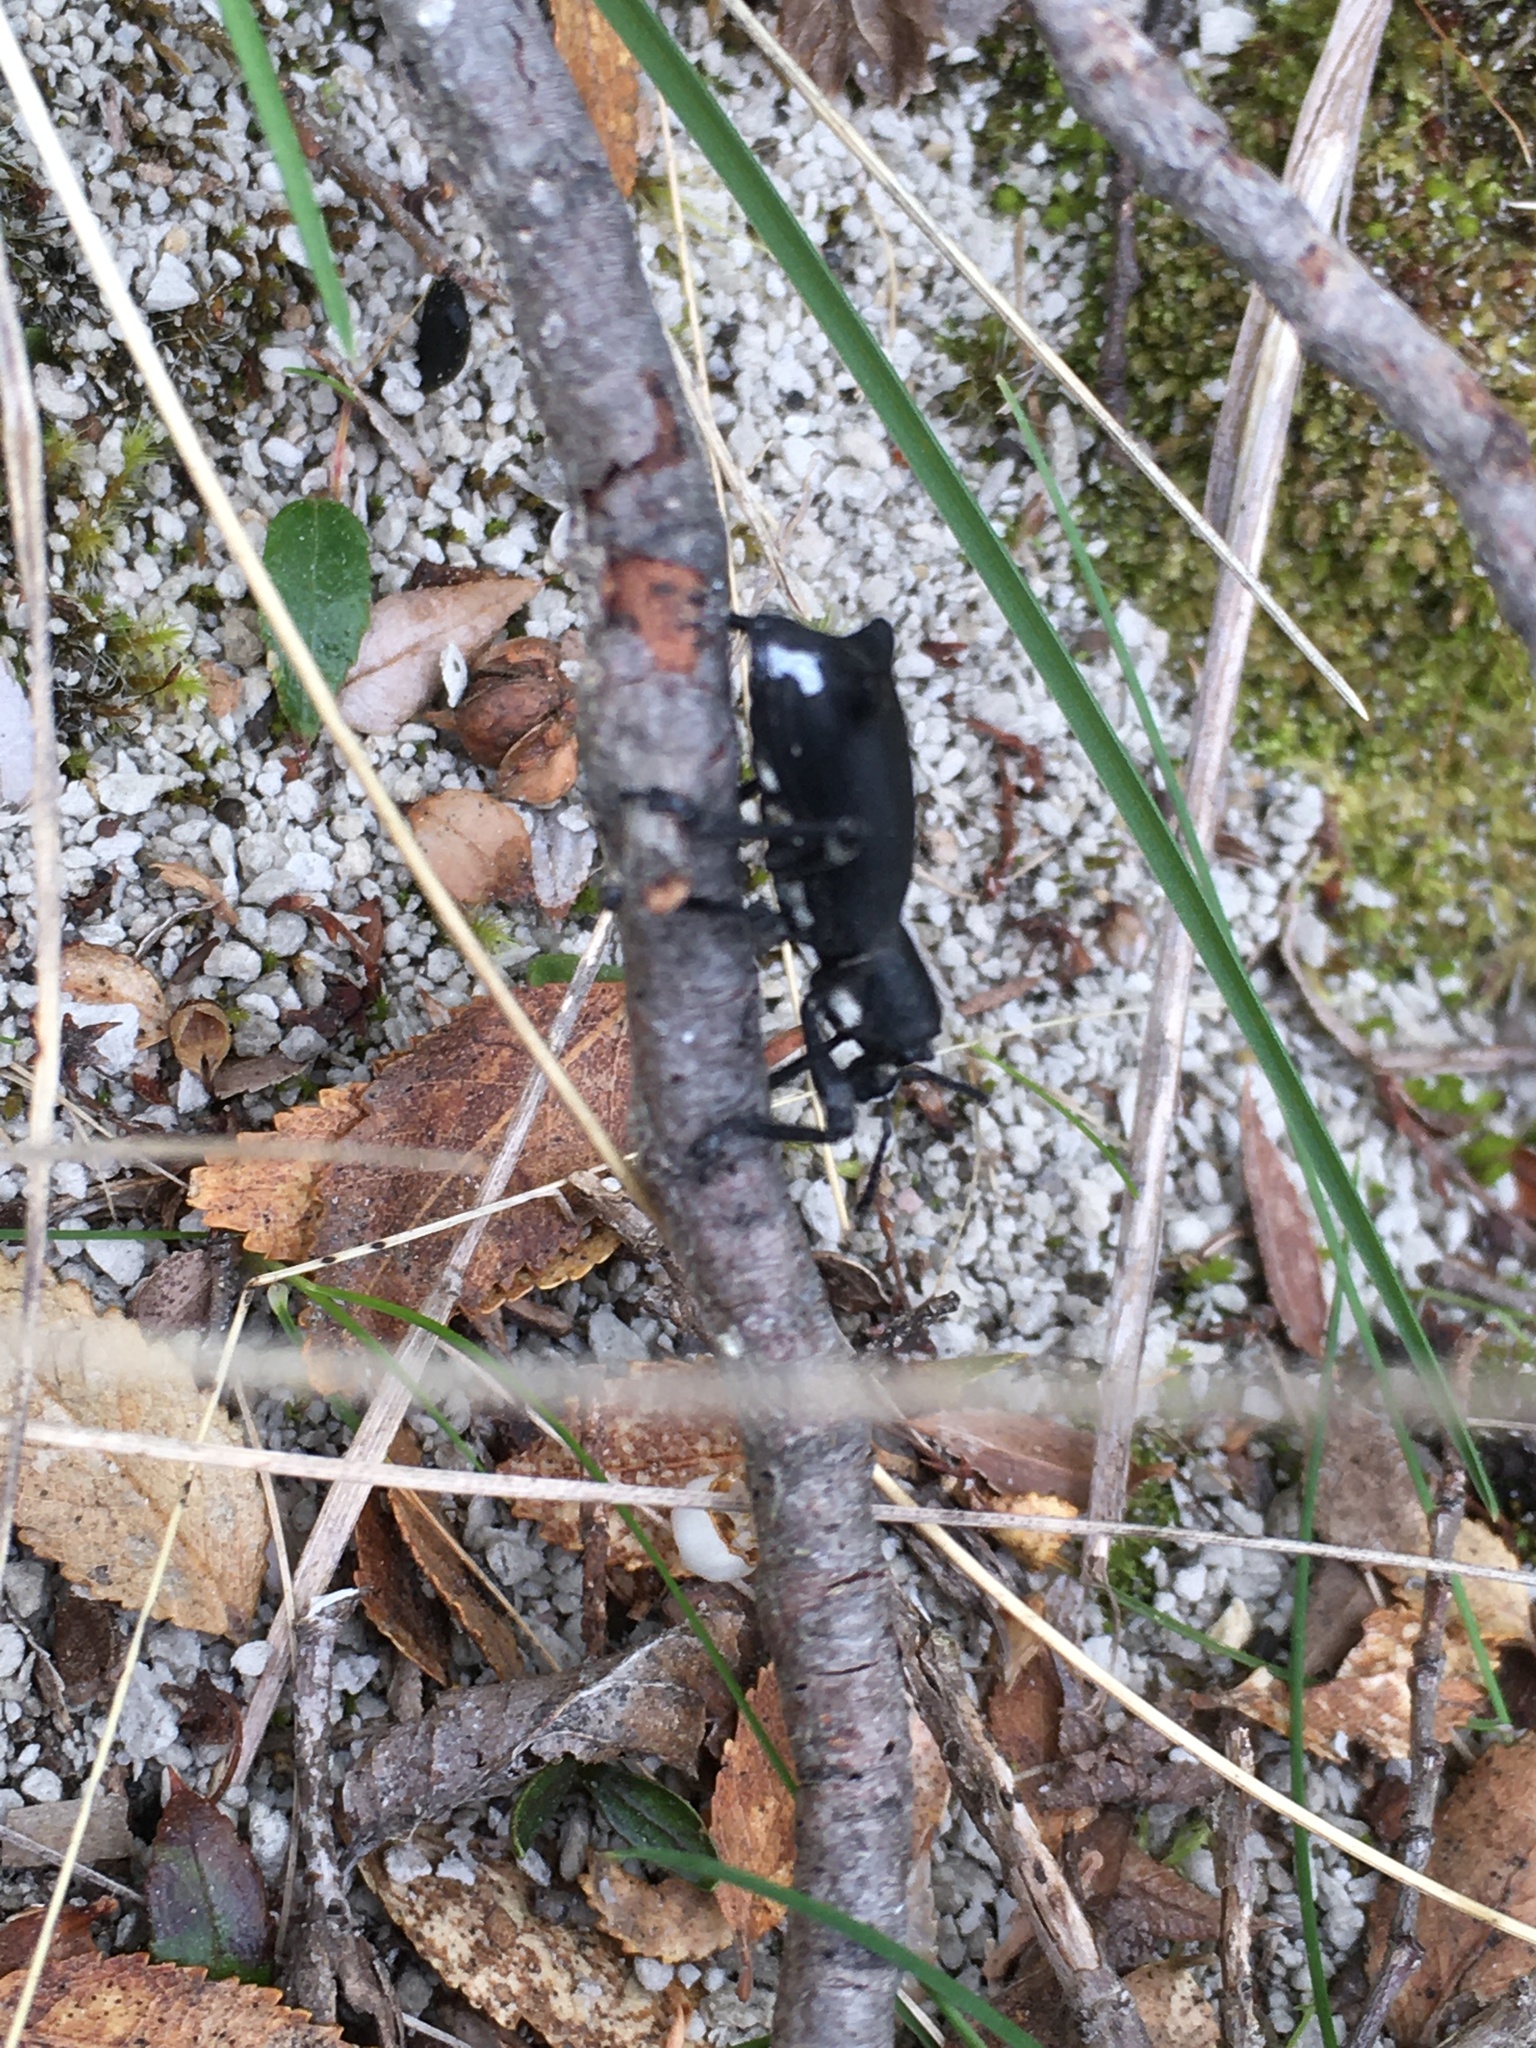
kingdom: Animalia
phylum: Arthropoda
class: Insecta
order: Coleoptera
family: Curculionidae
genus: Aegorhinus
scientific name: Aegorhinus
